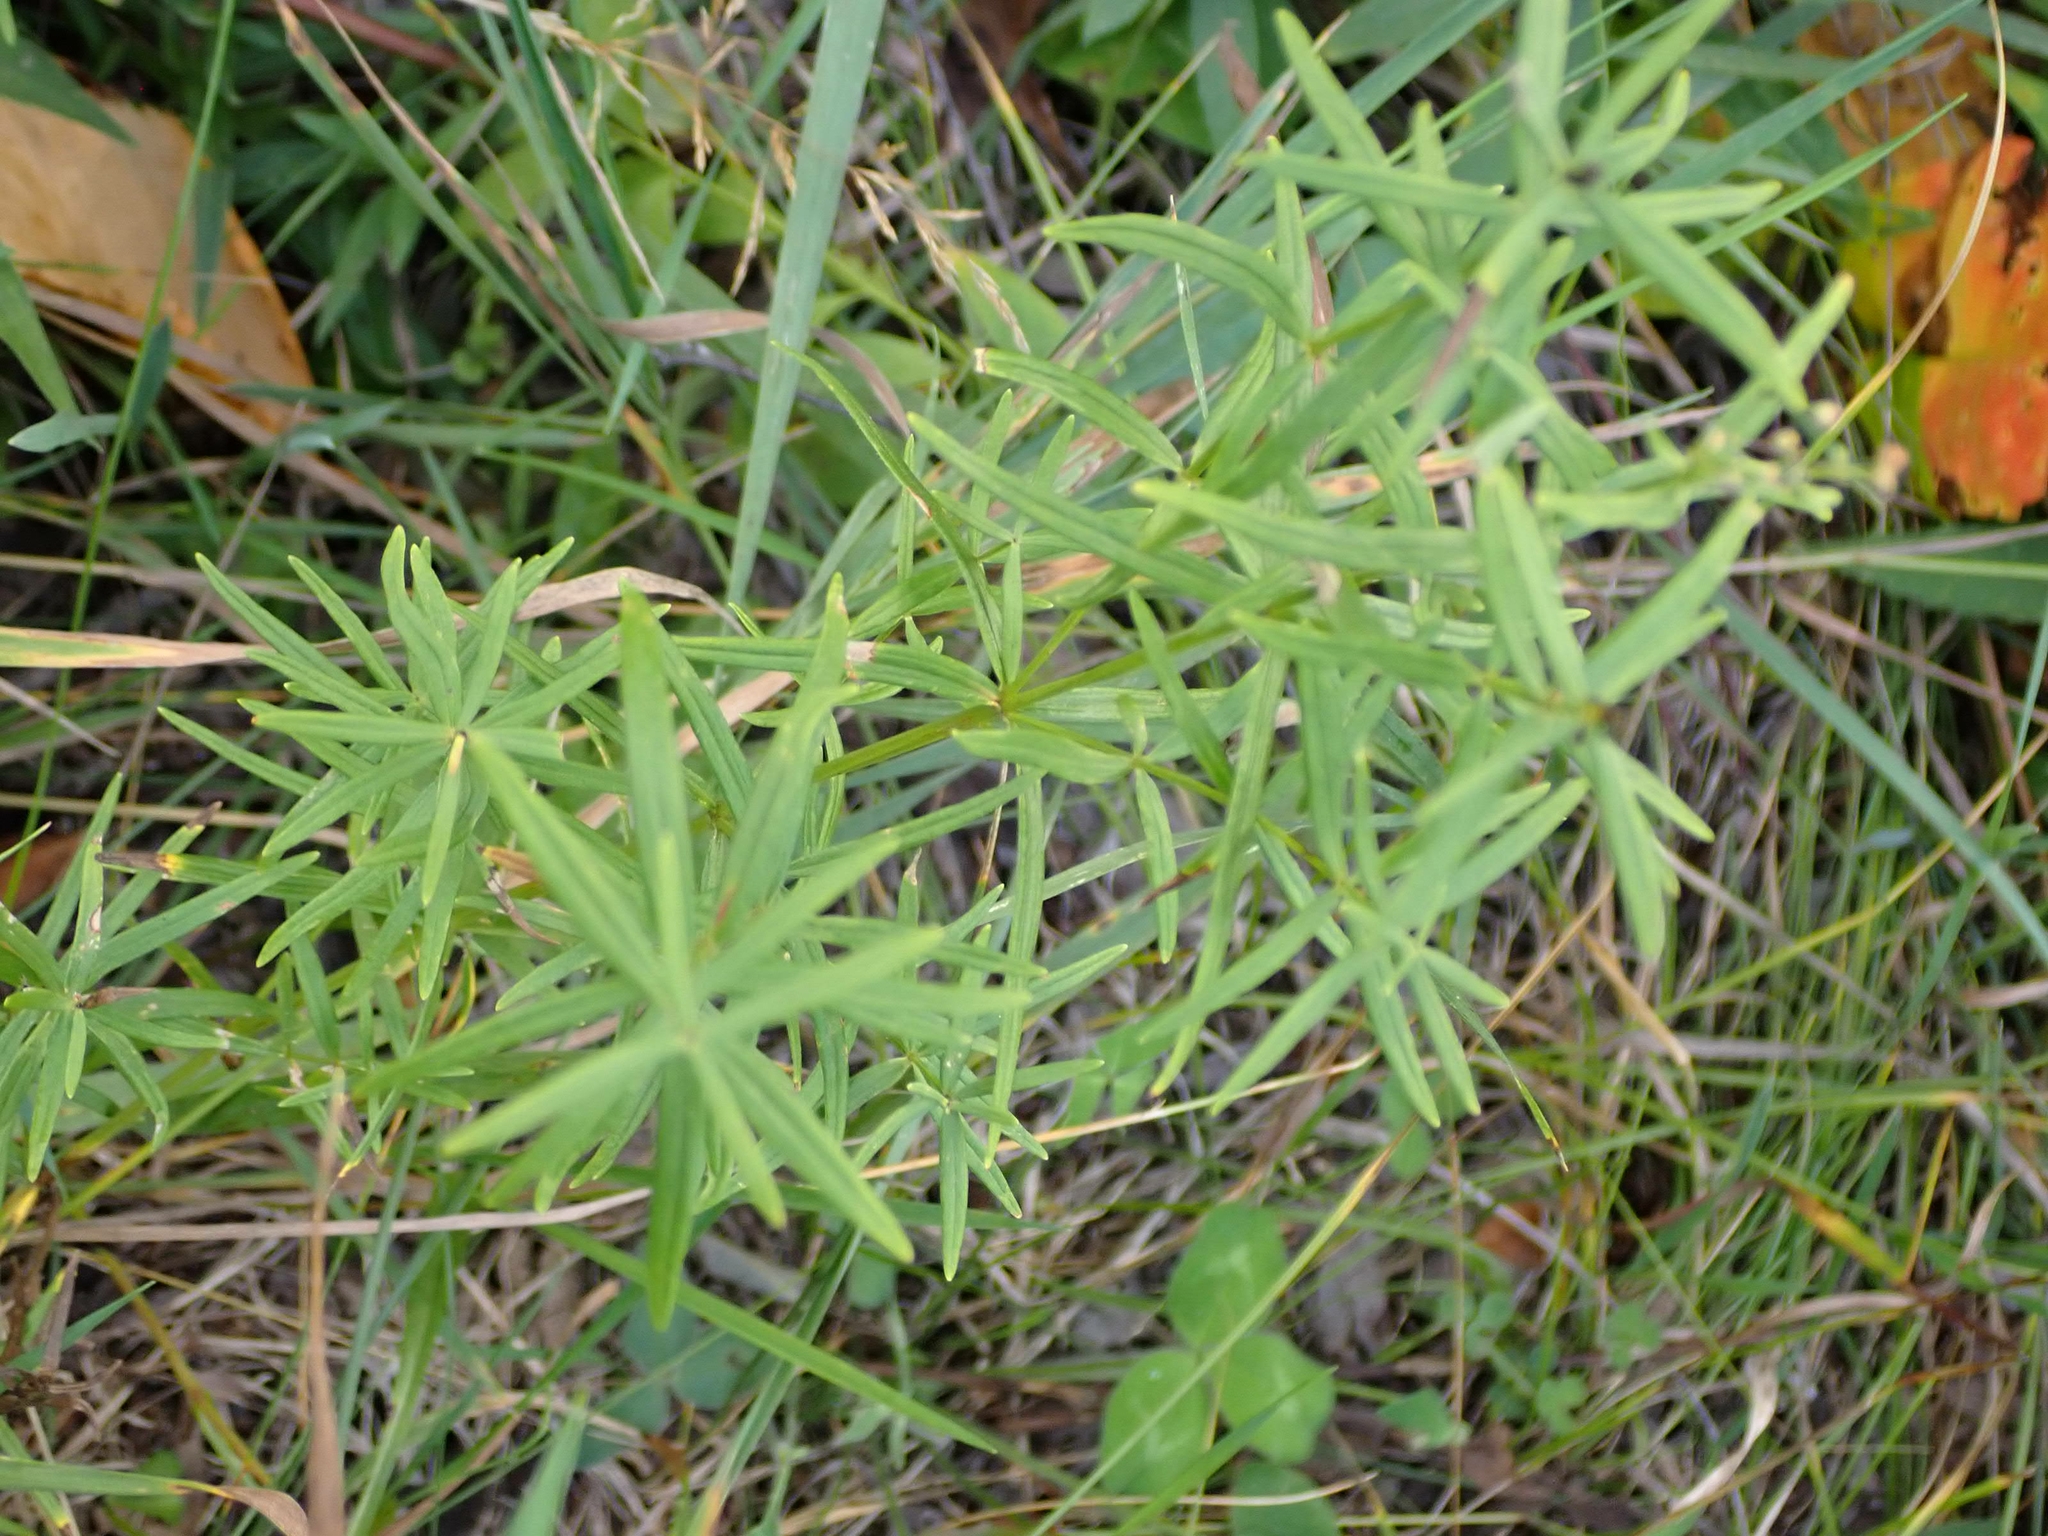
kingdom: Plantae
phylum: Tracheophyta
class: Magnoliopsida
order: Gentianales
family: Rubiaceae
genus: Galium
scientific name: Galium boreale
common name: Northern bedstraw
